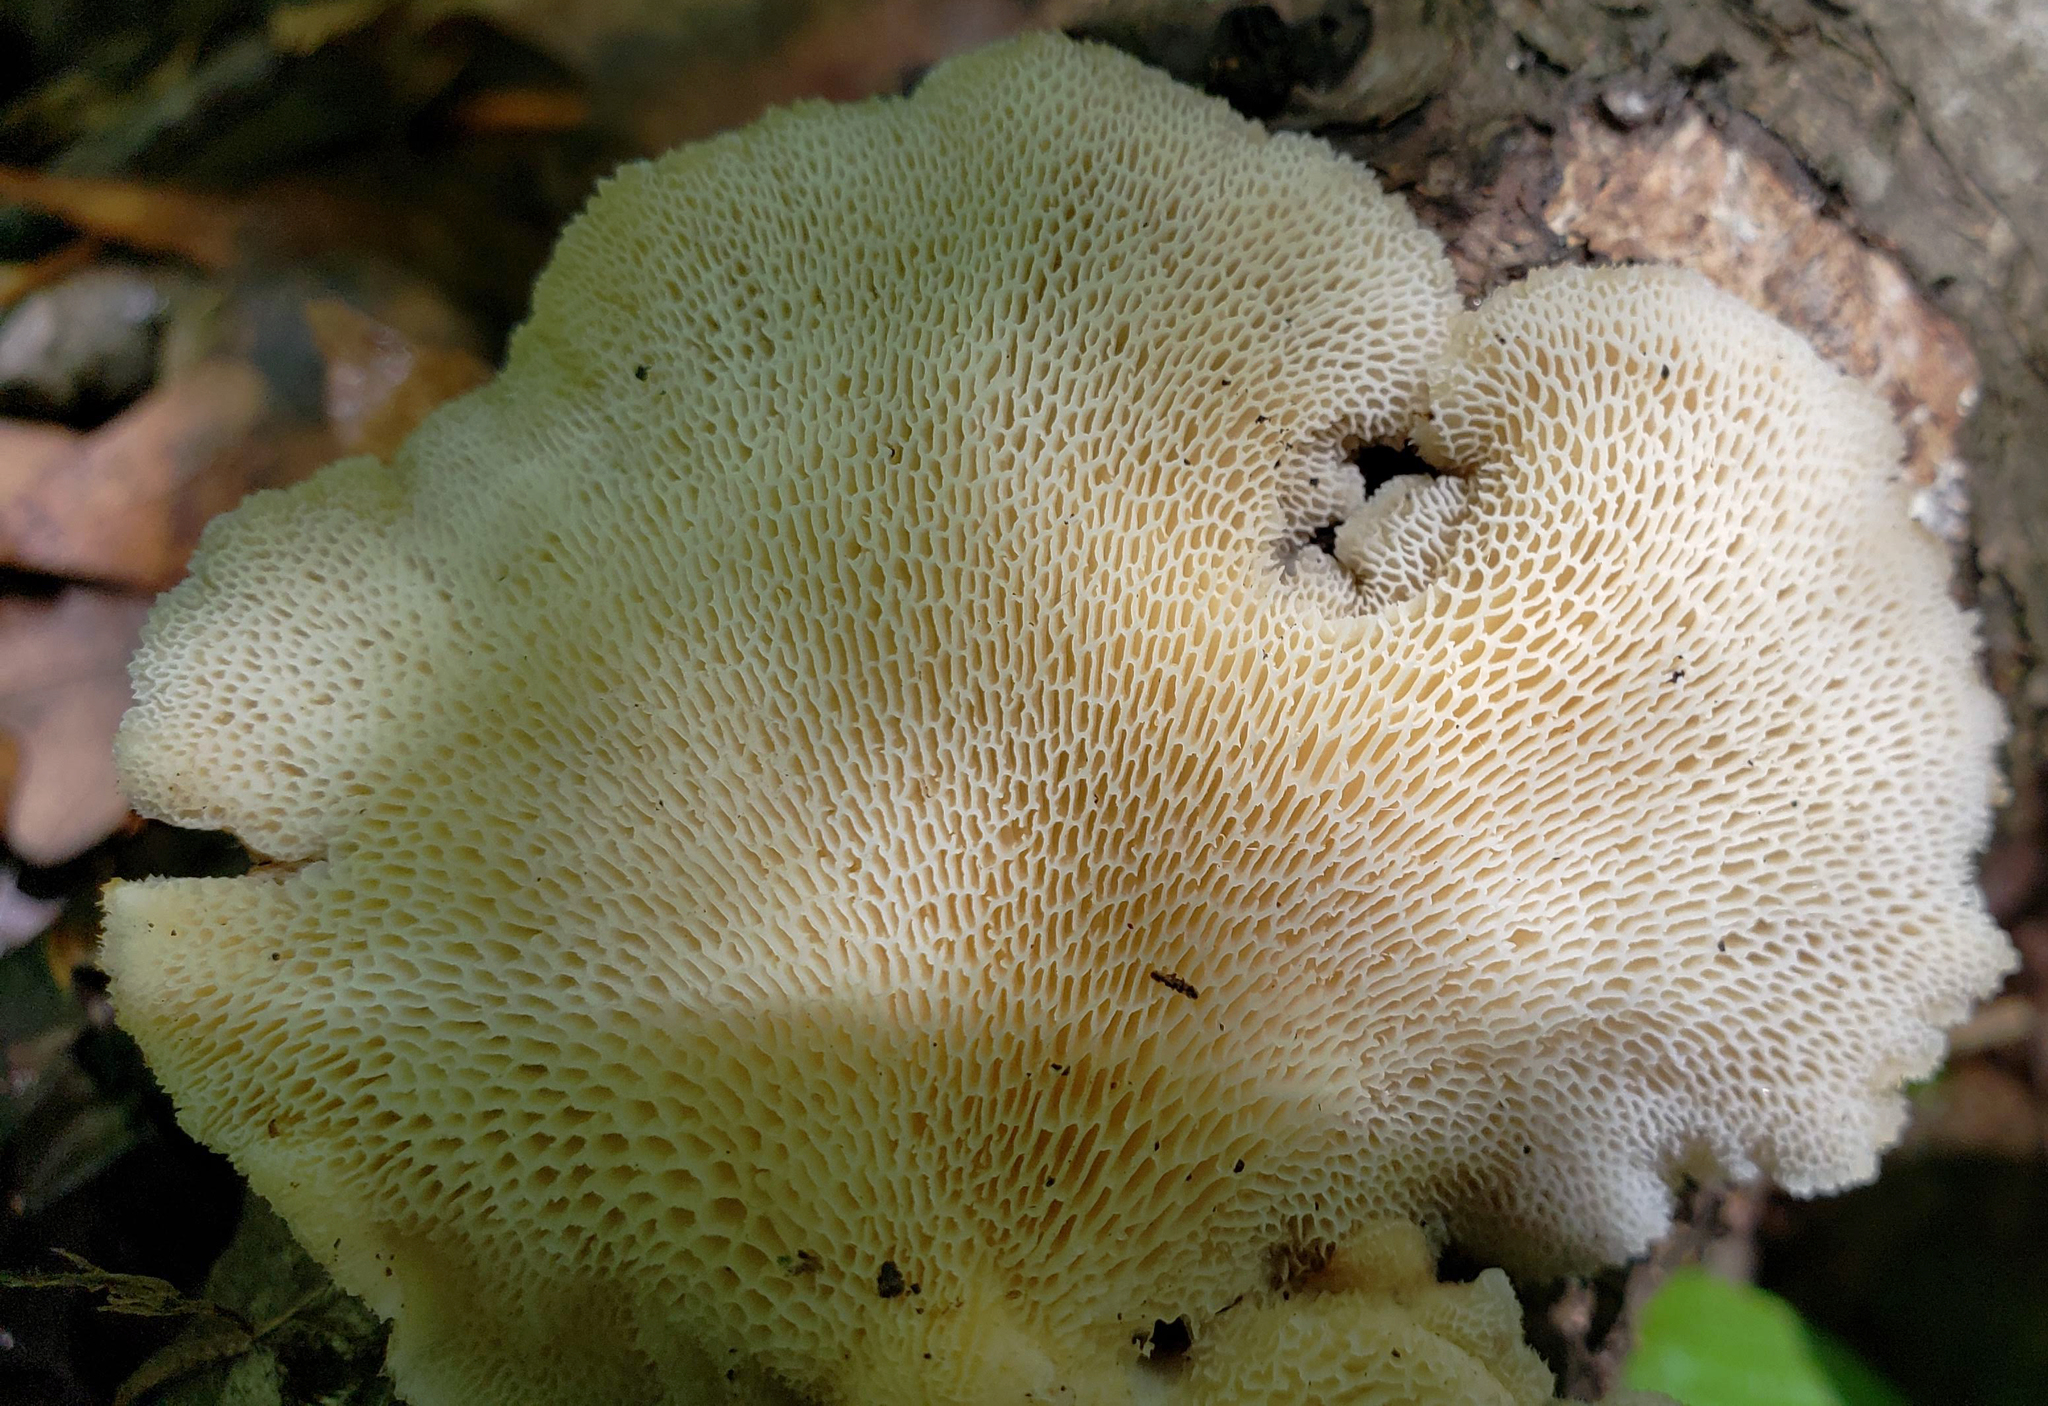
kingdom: Fungi
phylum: Basidiomycota
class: Agaricomycetes
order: Polyporales
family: Polyporaceae
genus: Neofavolus
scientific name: Neofavolus alveolaris
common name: Hexagonal-pored polypore
